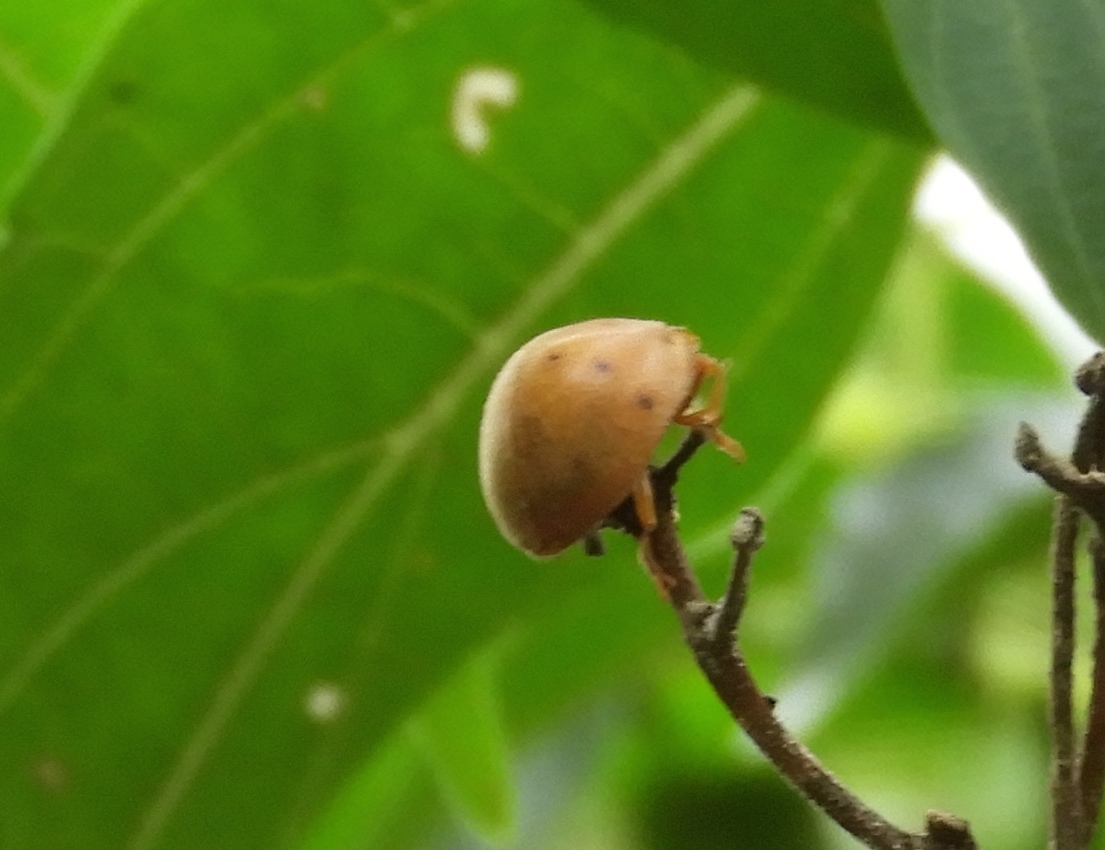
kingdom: Animalia
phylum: Arthropoda
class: Insecta
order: Coleoptera
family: Coccinellidae
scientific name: Coccinellidae
